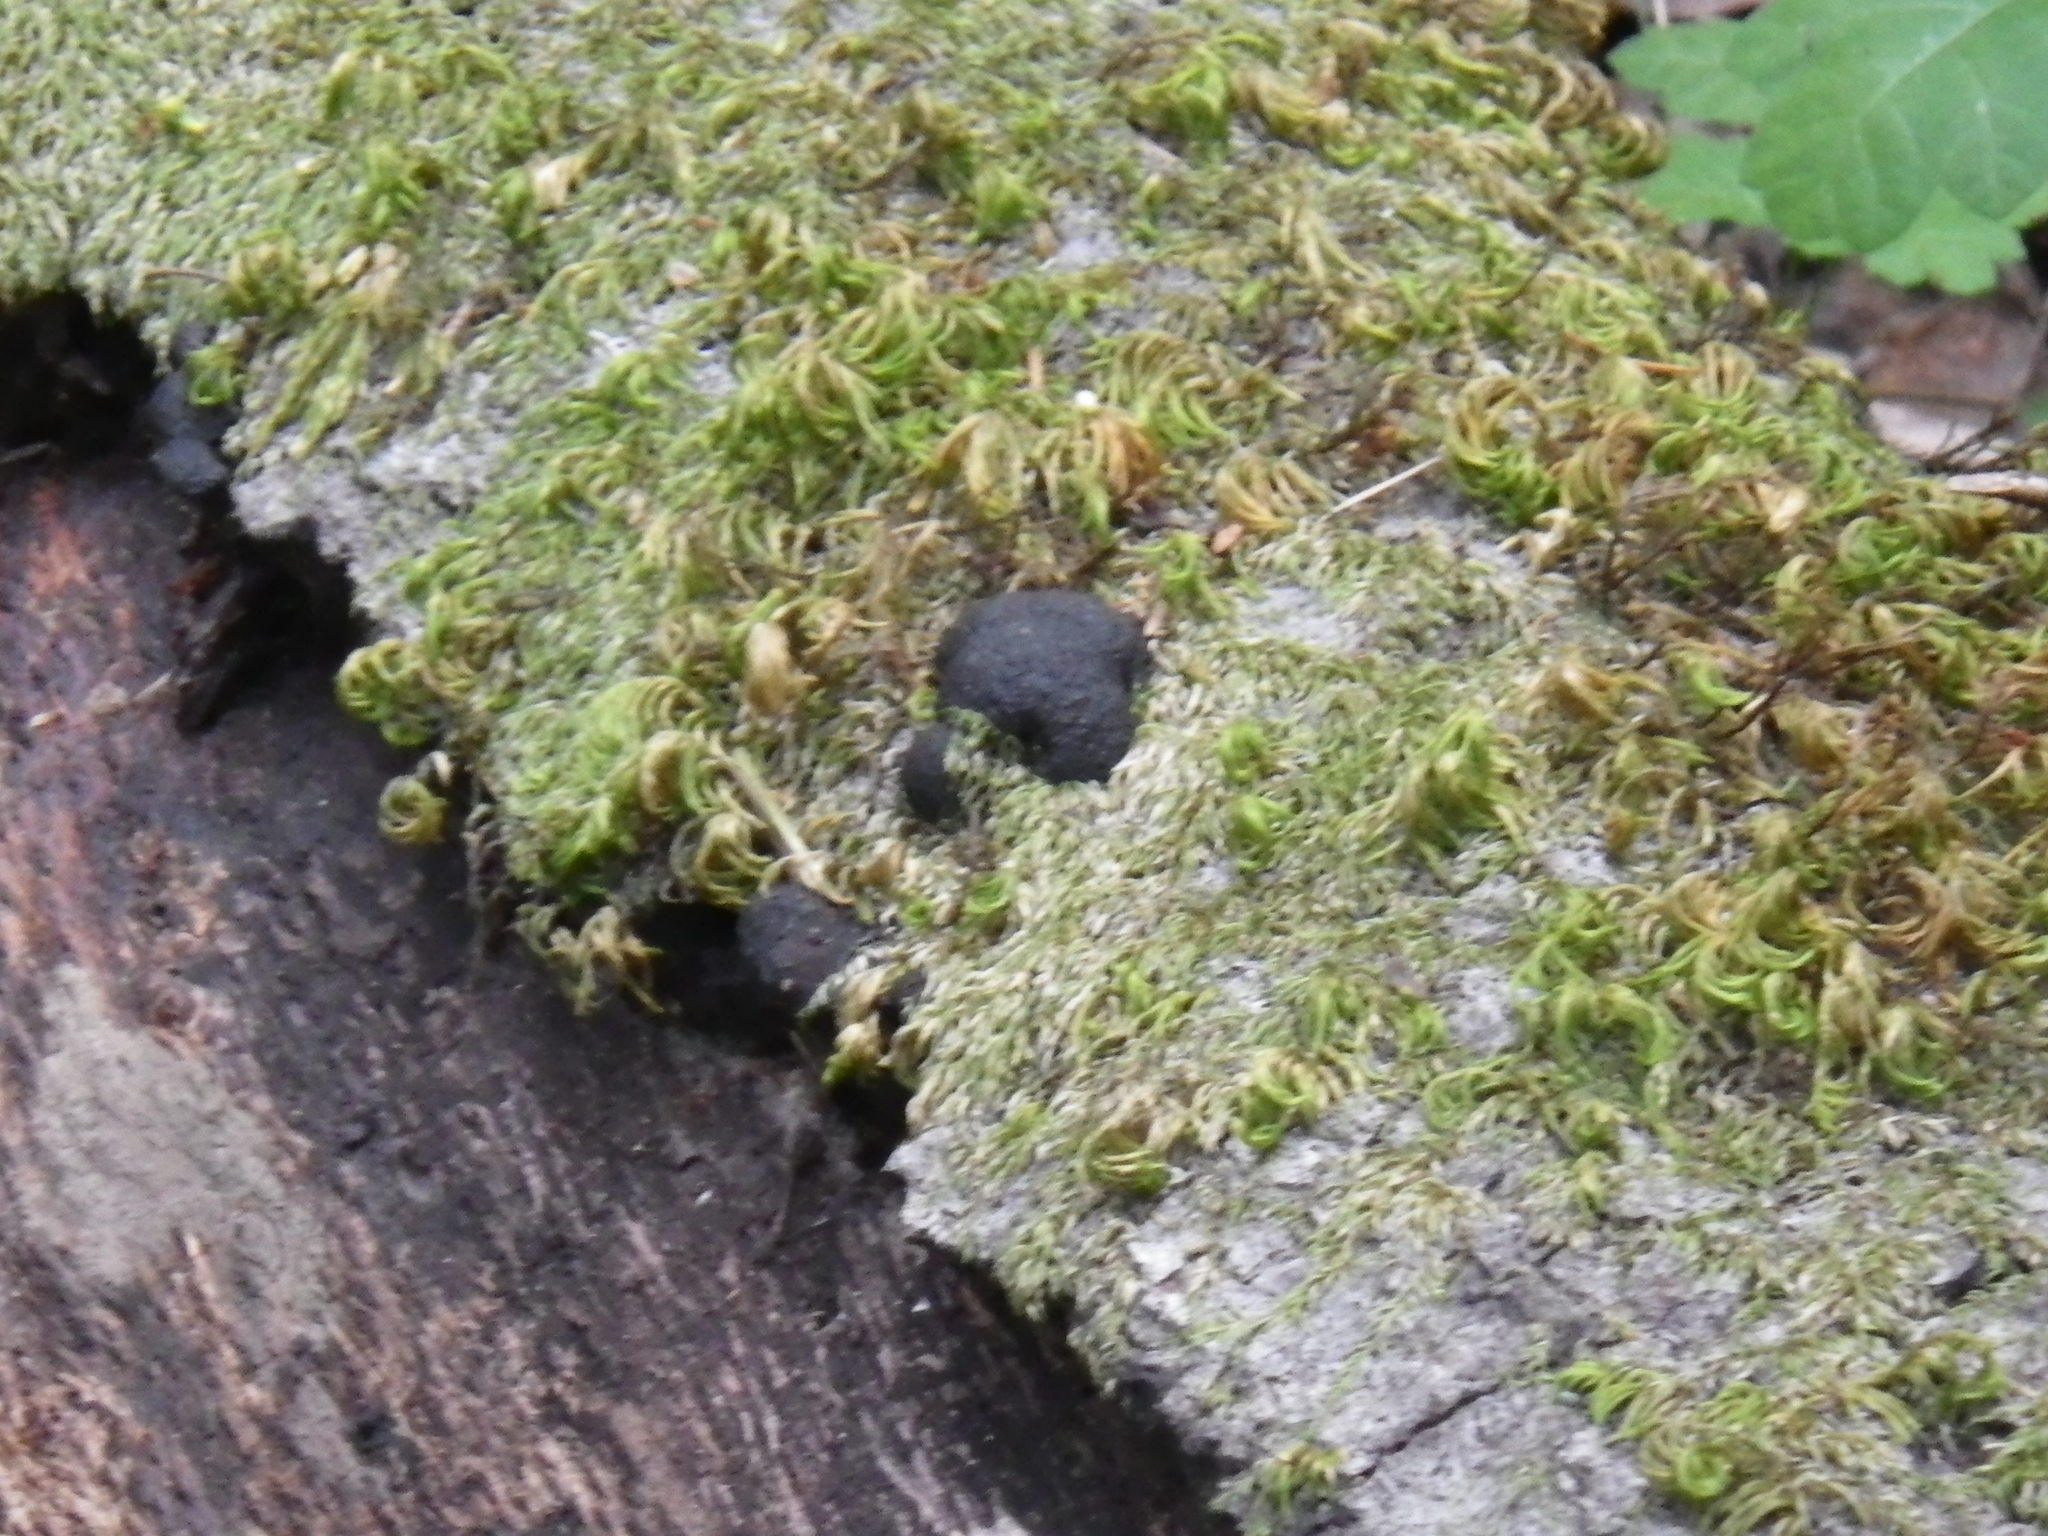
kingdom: Fungi
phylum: Ascomycota
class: Sordariomycetes
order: Xylariales
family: Hypoxylaceae
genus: Annulohypoxylon
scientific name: Annulohypoxylon thouarsianum
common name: Cramp balls
